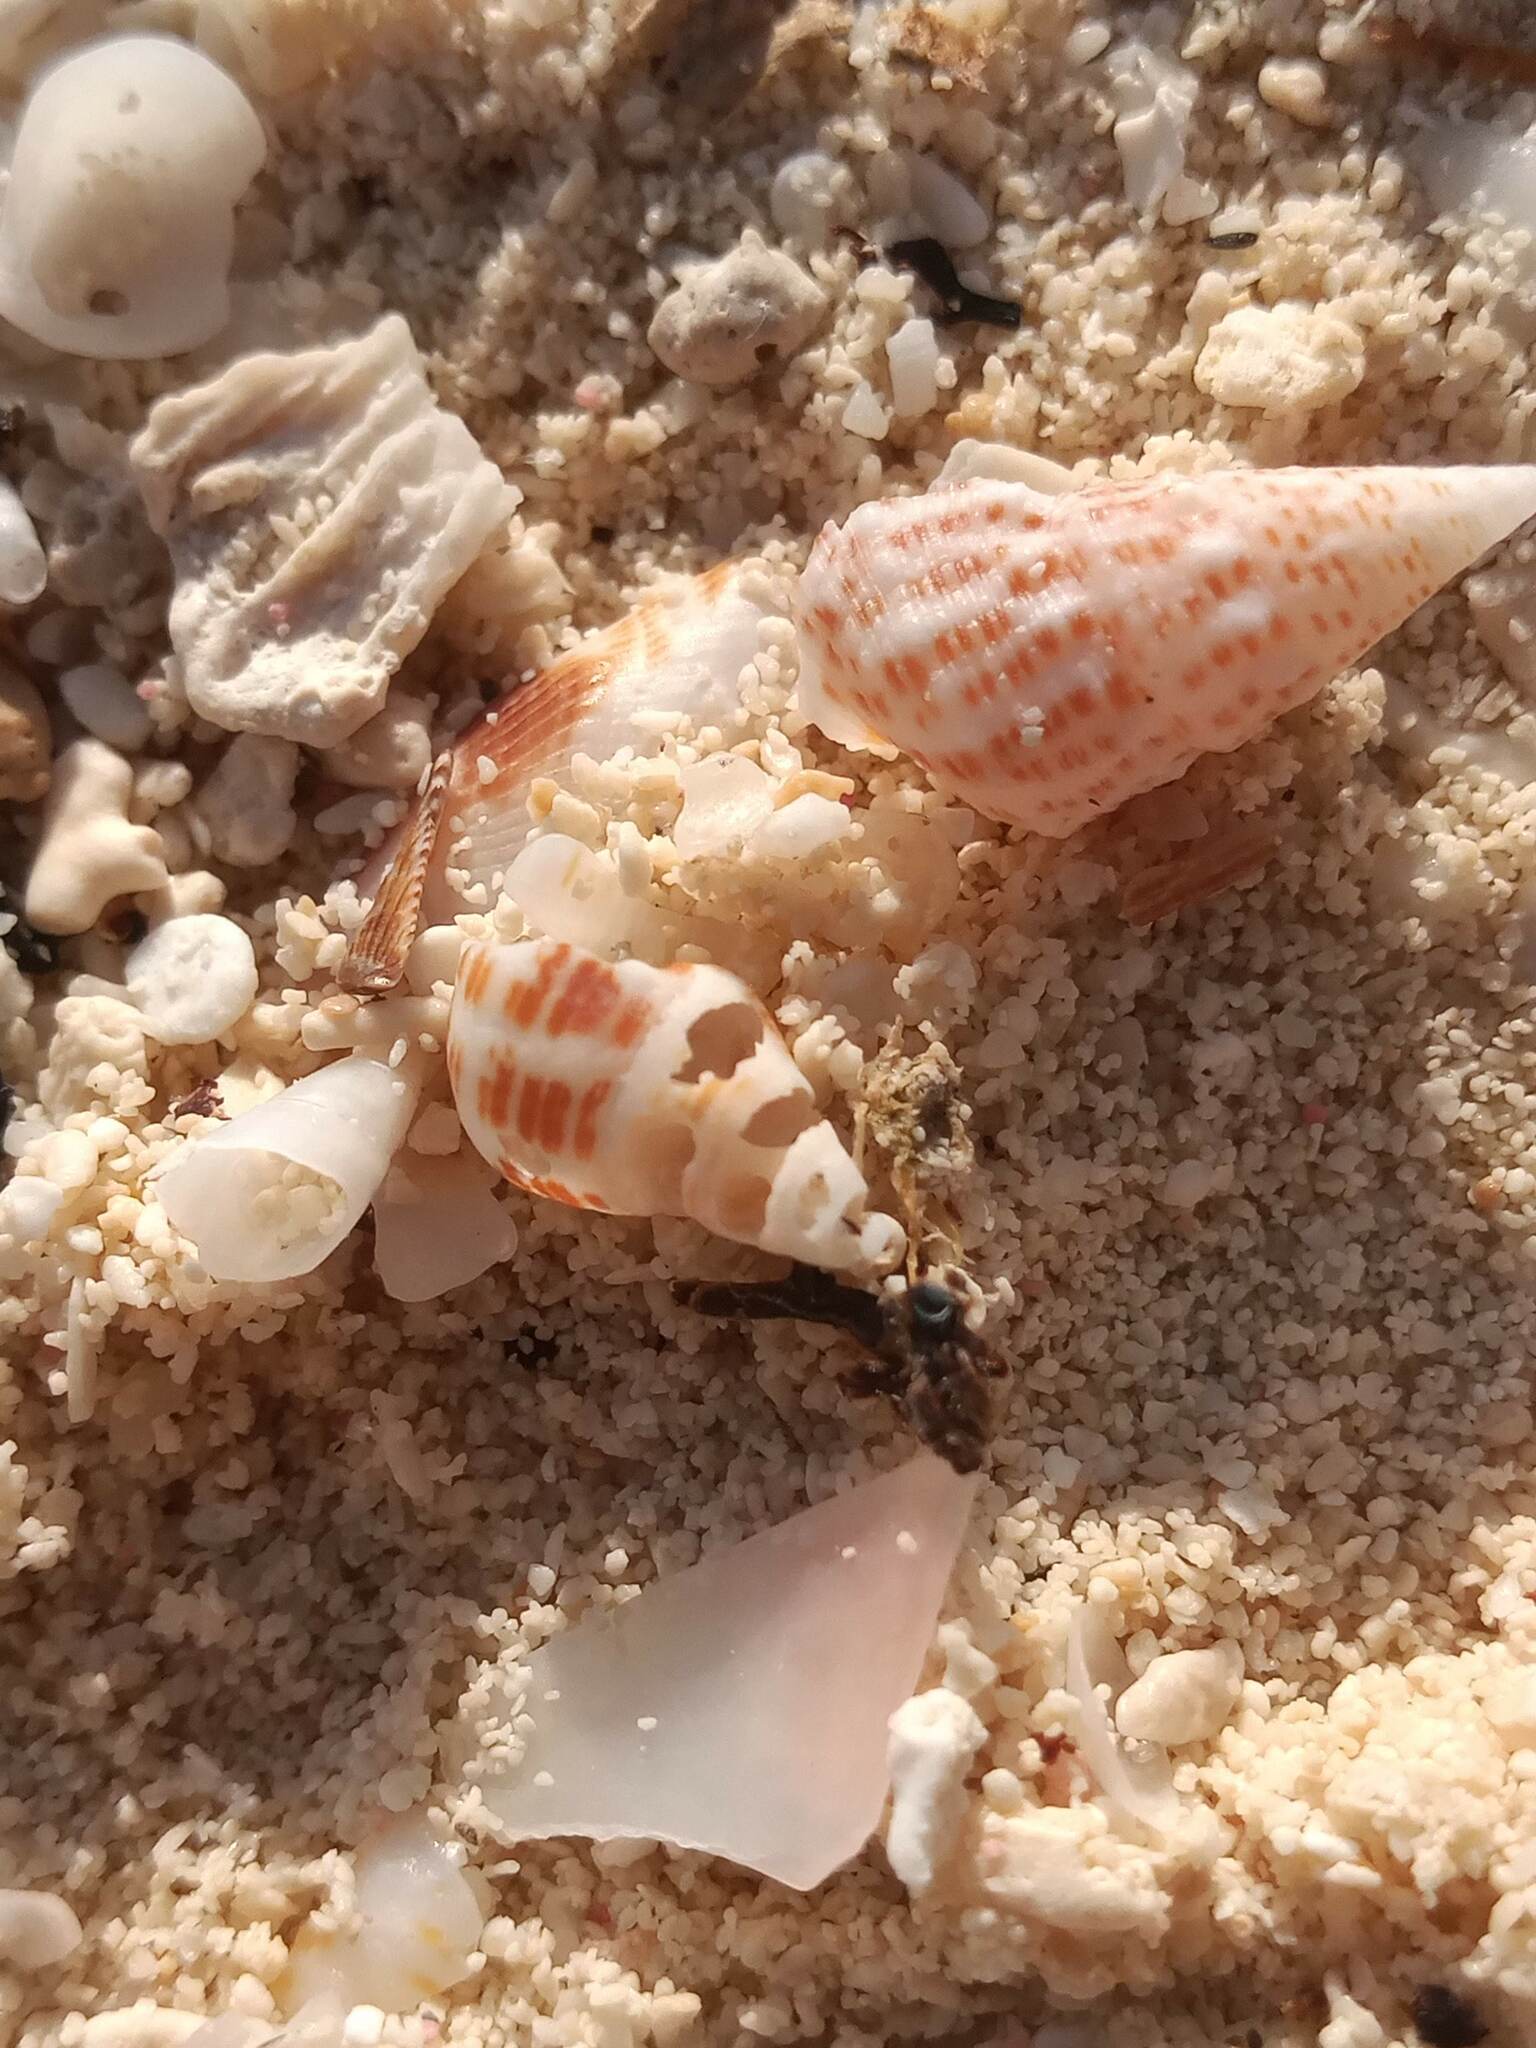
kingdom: Animalia
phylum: Mollusca
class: Gastropoda
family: Cerithiidae
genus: Cerithium
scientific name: Cerithium litteratum
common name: Stocky cerith
